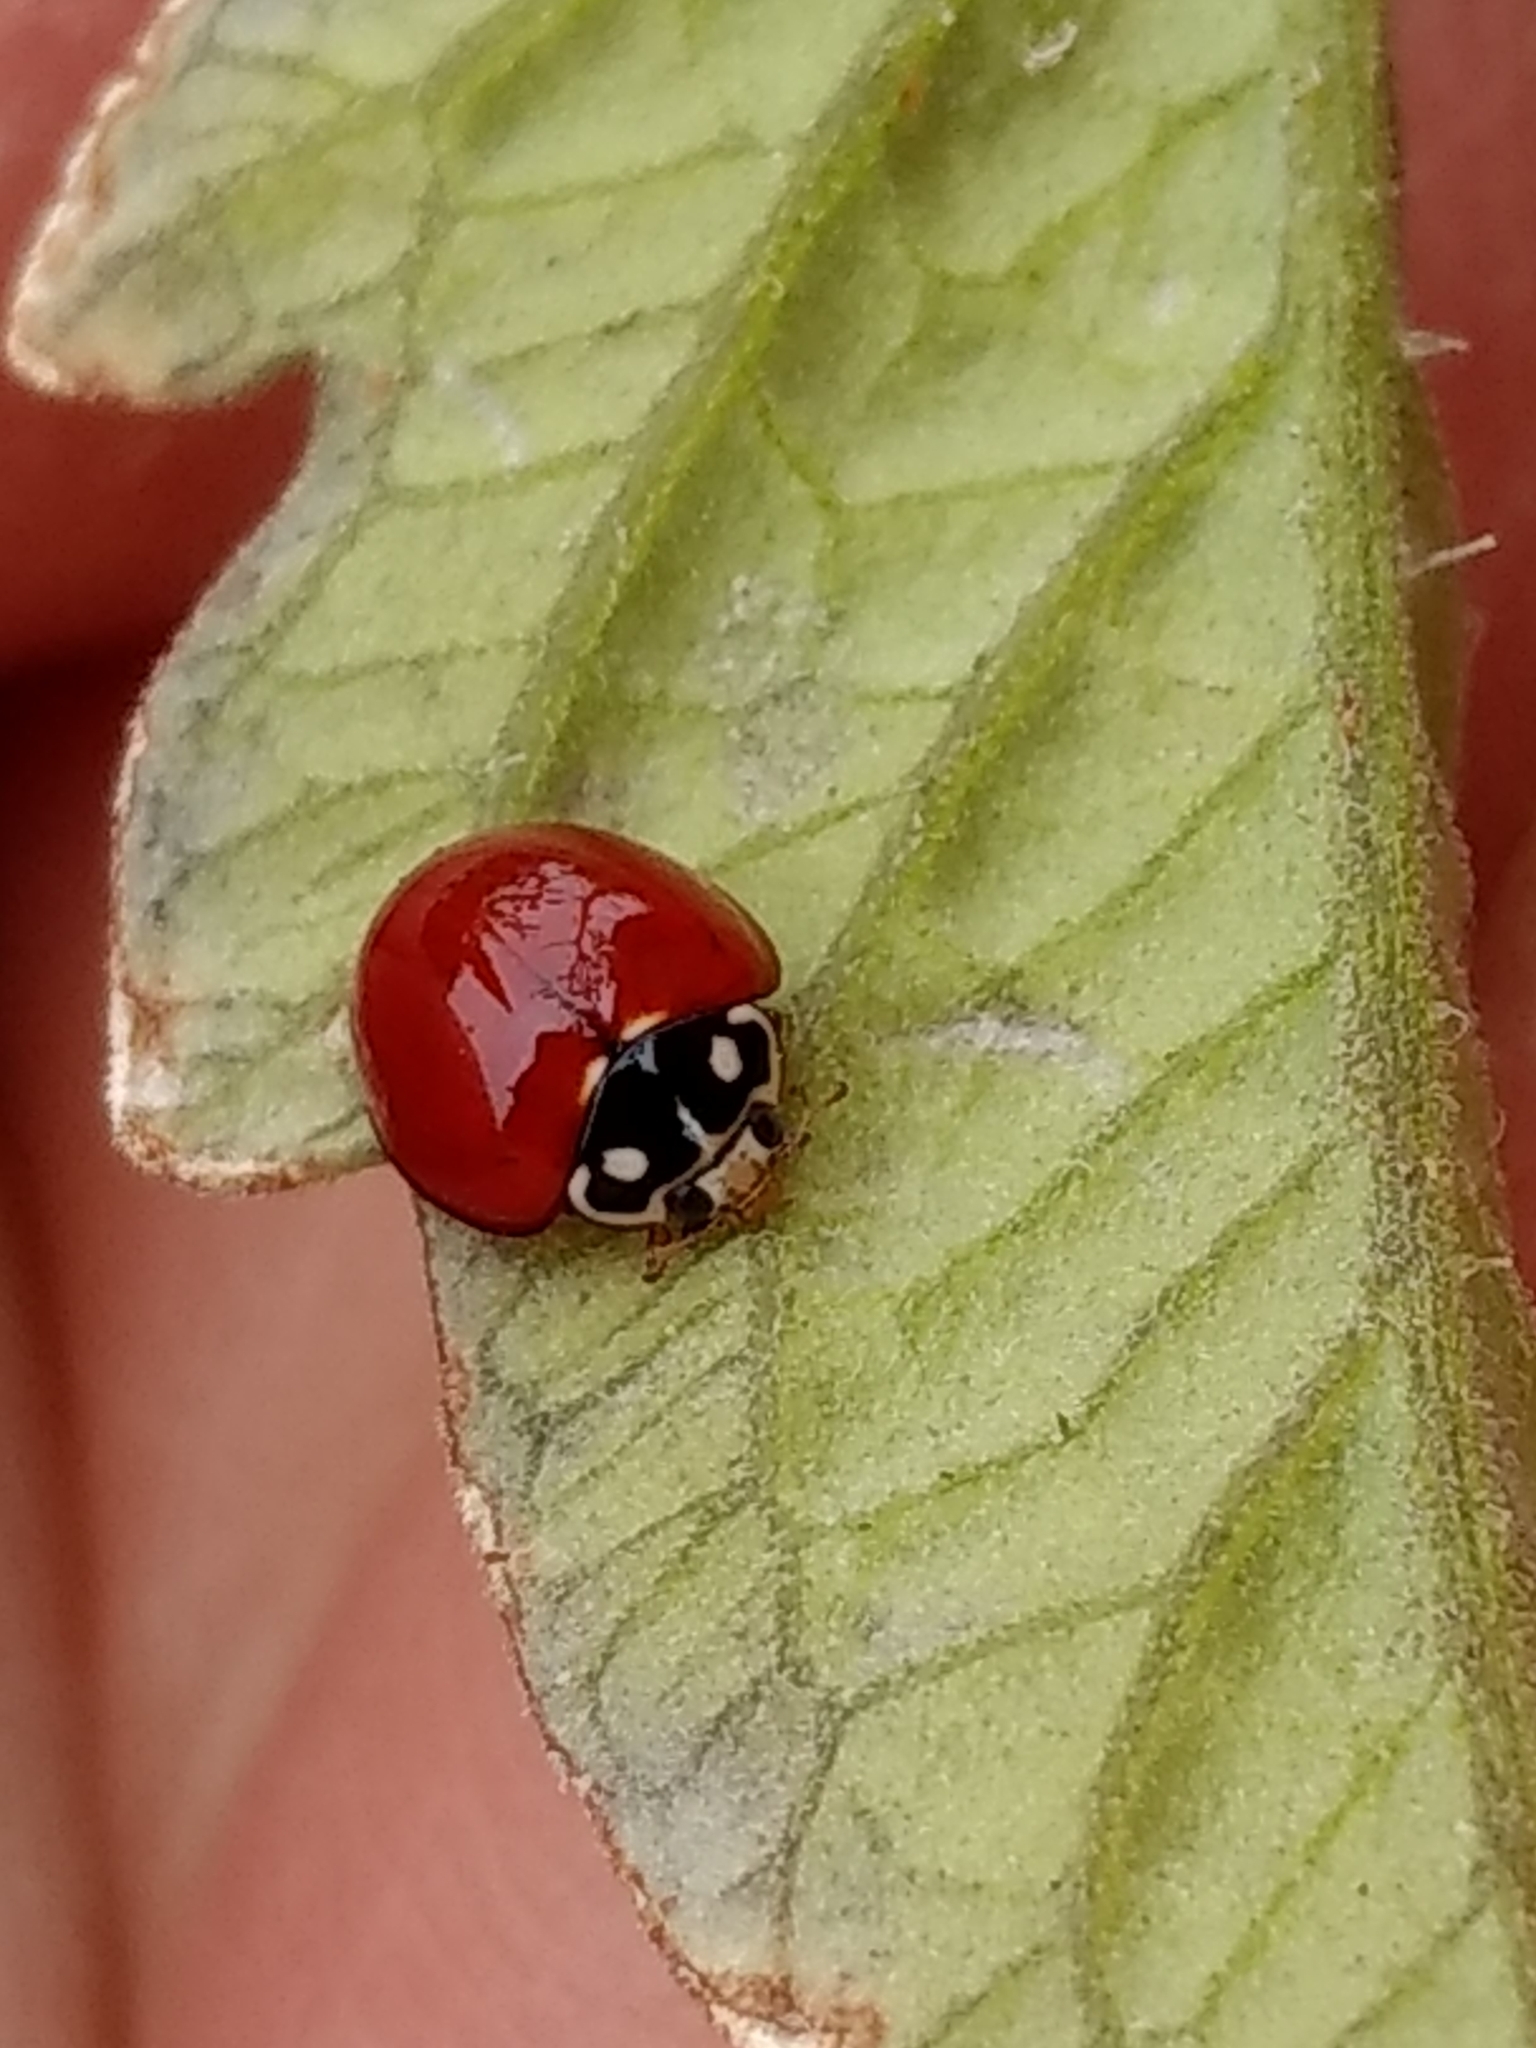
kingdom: Animalia
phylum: Arthropoda
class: Insecta
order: Coleoptera
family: Coccinellidae
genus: Cycloneda
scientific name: Cycloneda sanguinea
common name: Ladybird beetle
